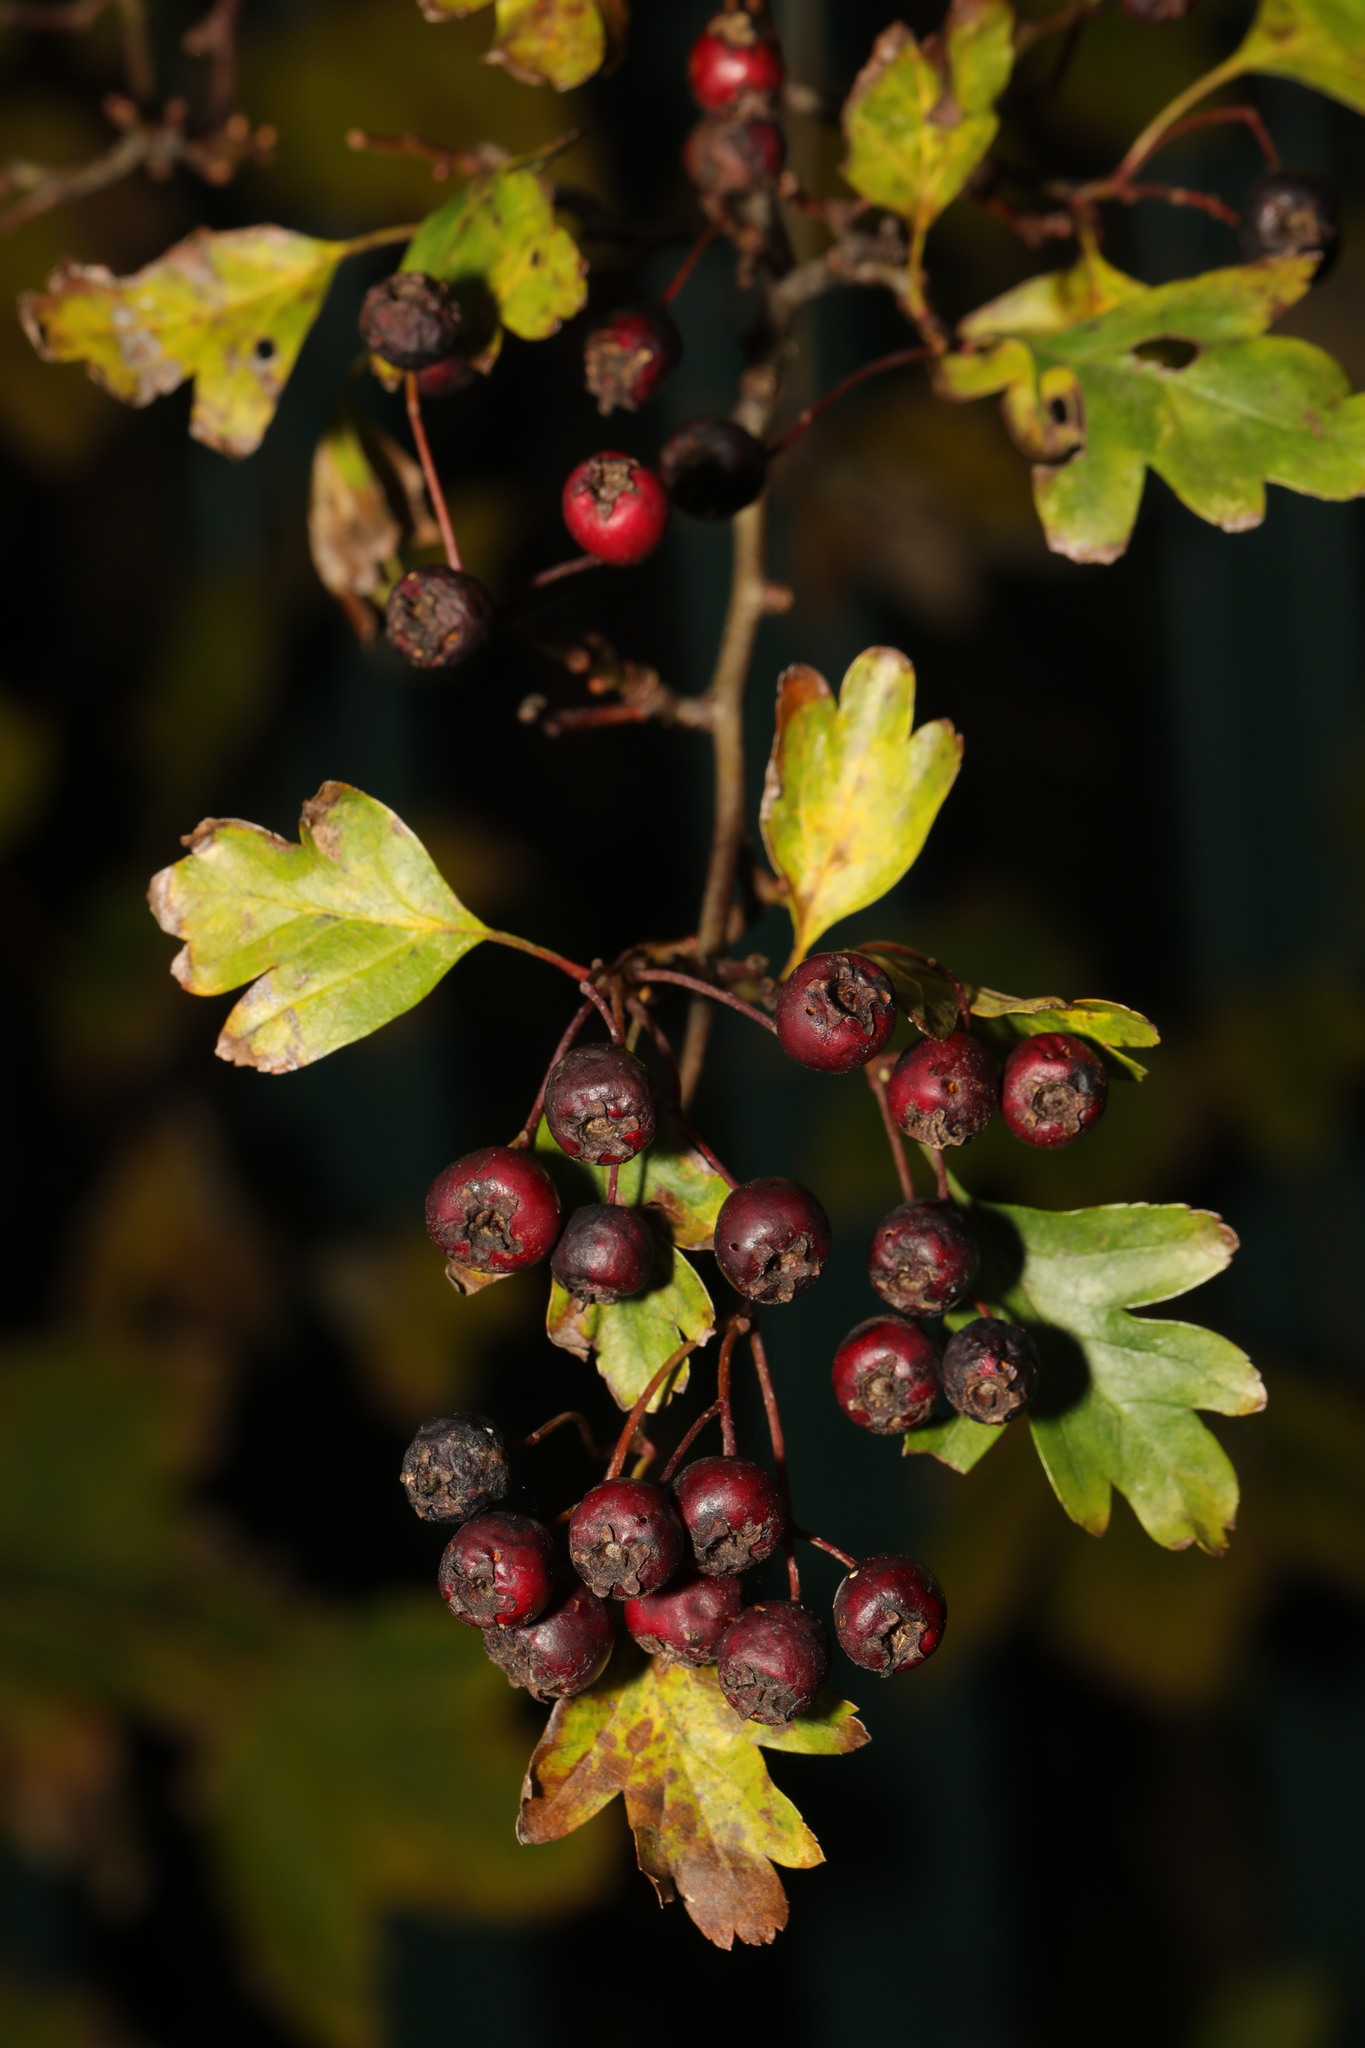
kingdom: Plantae
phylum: Tracheophyta
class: Magnoliopsida
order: Rosales
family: Rosaceae
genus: Crataegus
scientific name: Crataegus monogyna
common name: Hawthorn
